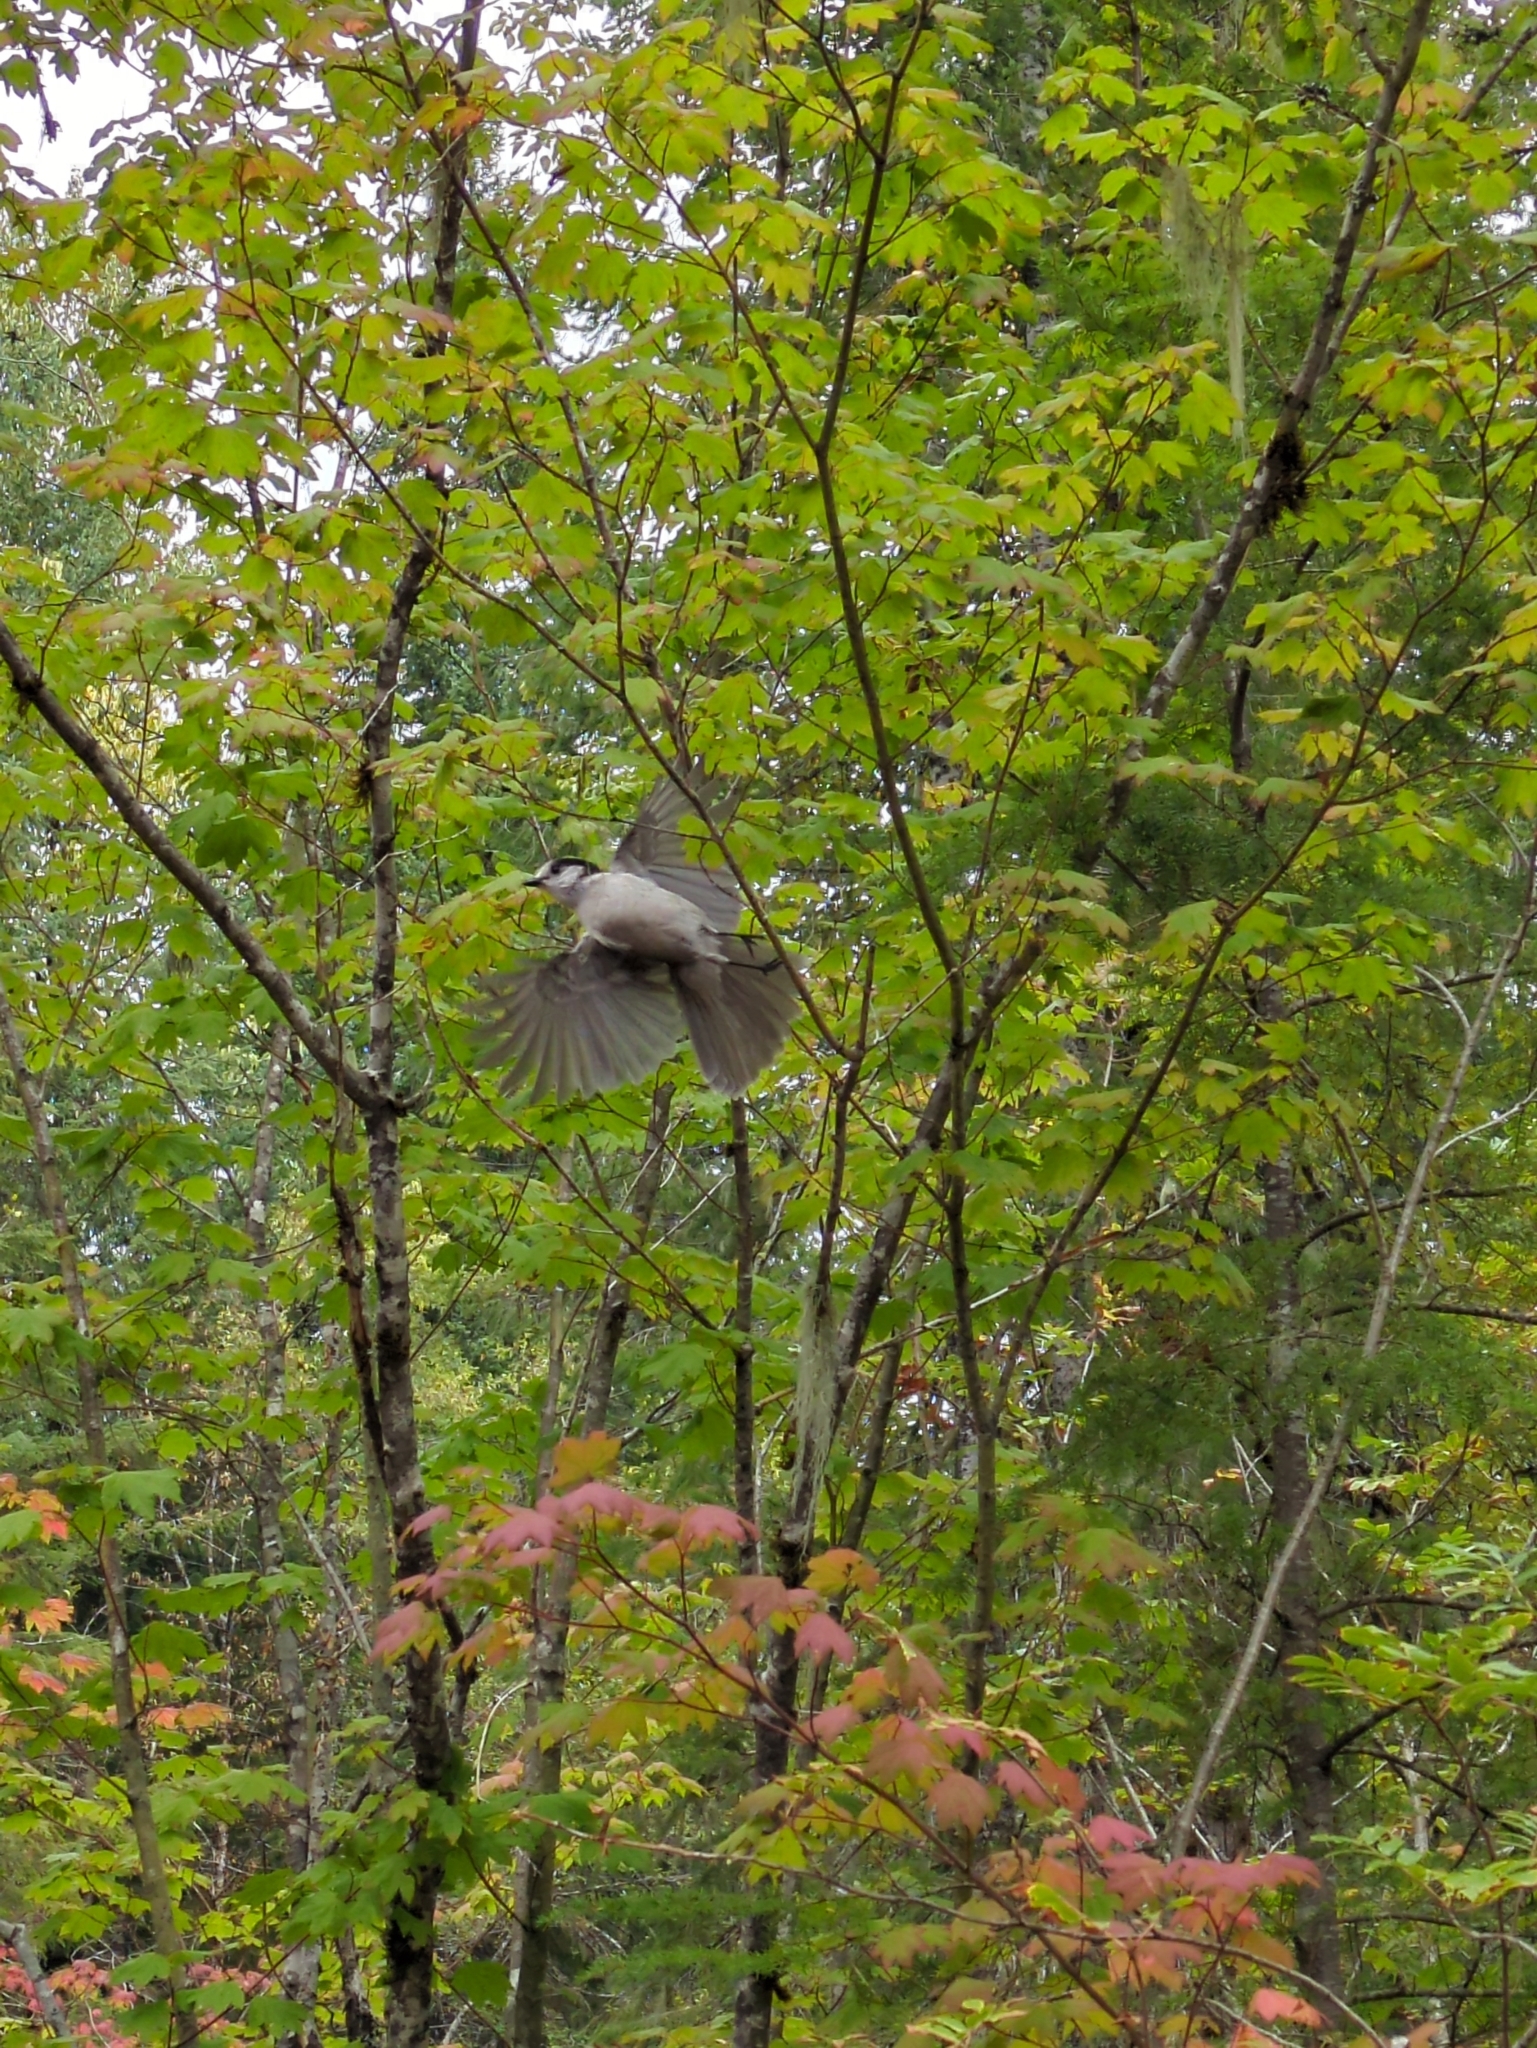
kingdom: Animalia
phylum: Chordata
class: Aves
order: Passeriformes
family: Corvidae
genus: Perisoreus
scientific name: Perisoreus canadensis
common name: Gray jay
